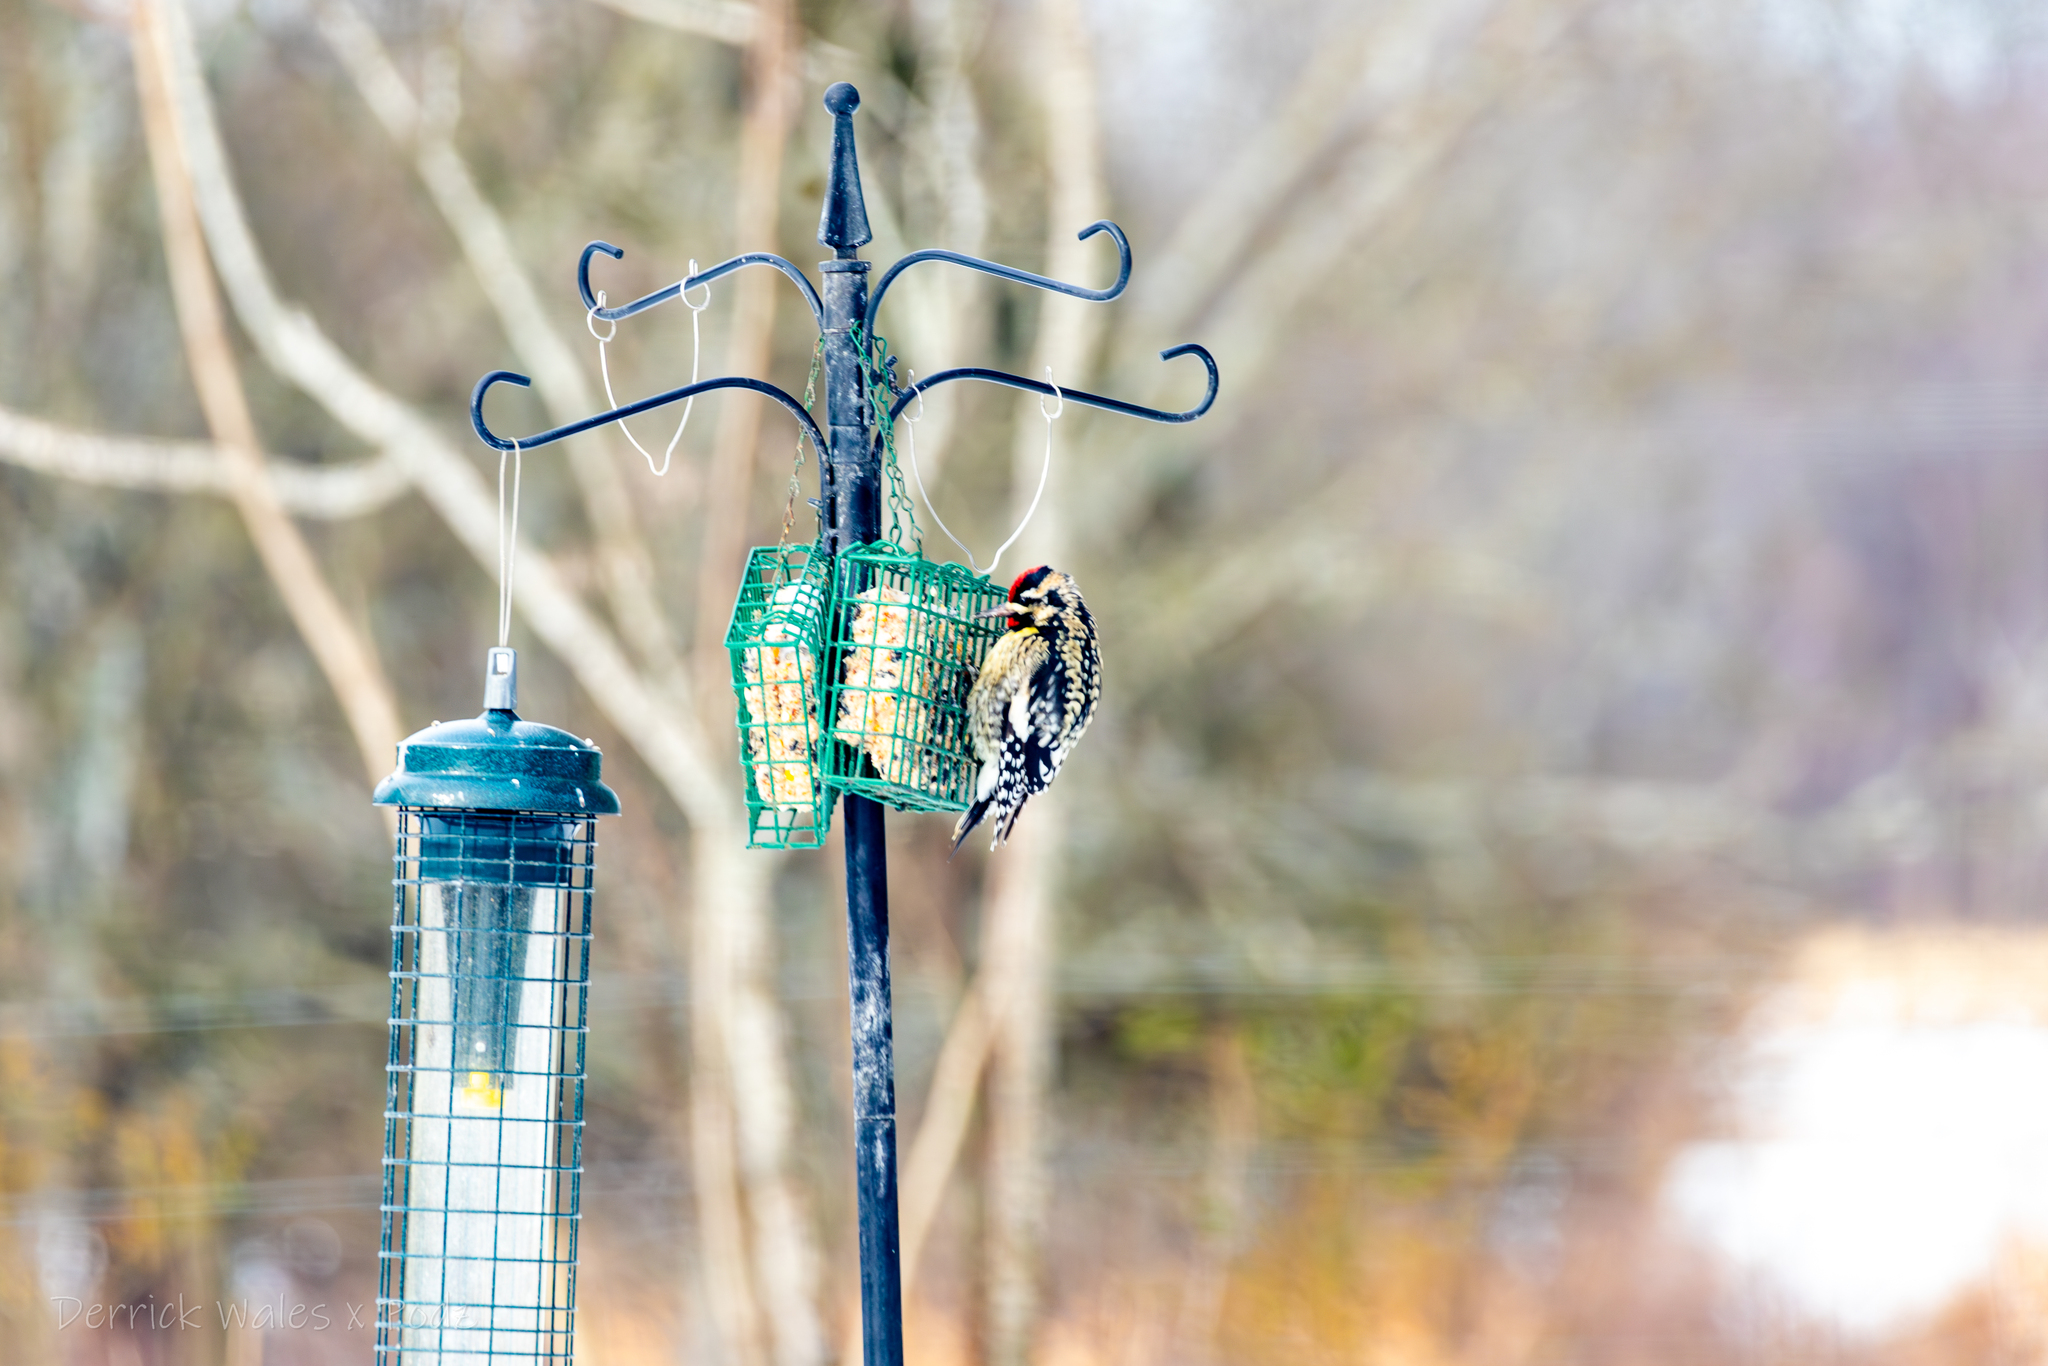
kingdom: Animalia
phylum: Chordata
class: Aves
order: Piciformes
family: Picidae
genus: Sphyrapicus
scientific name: Sphyrapicus varius
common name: Yellow-bellied sapsucker
